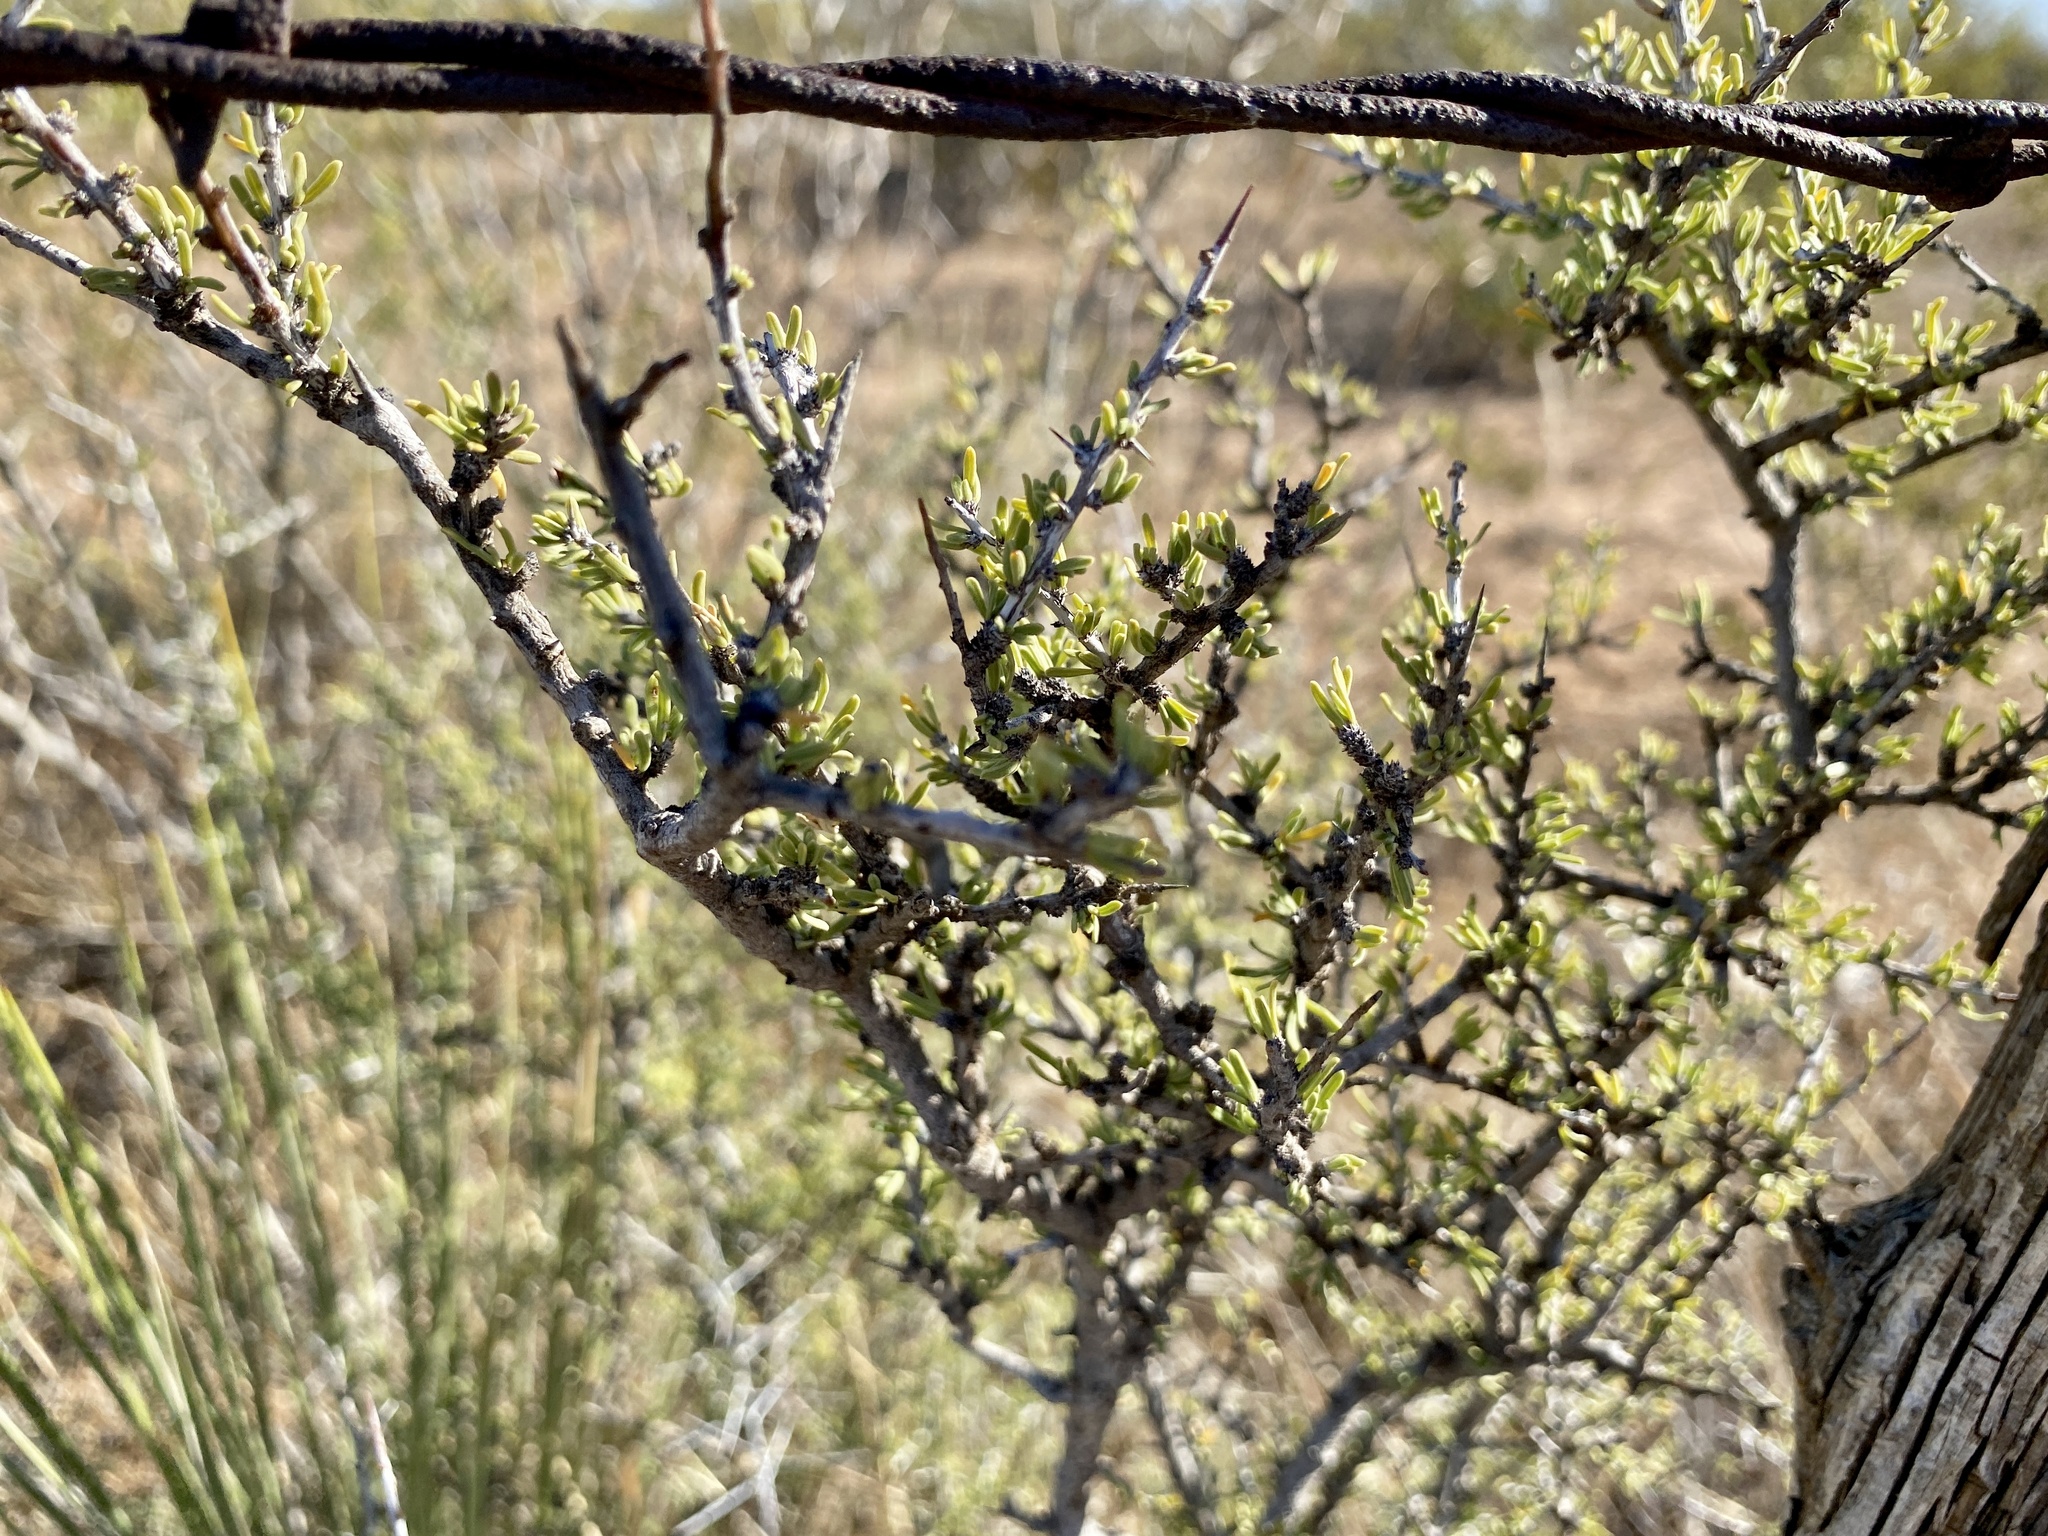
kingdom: Plantae
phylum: Tracheophyta
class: Magnoliopsida
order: Rosales
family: Rhamnaceae
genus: Condalia
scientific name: Condalia ericoides
